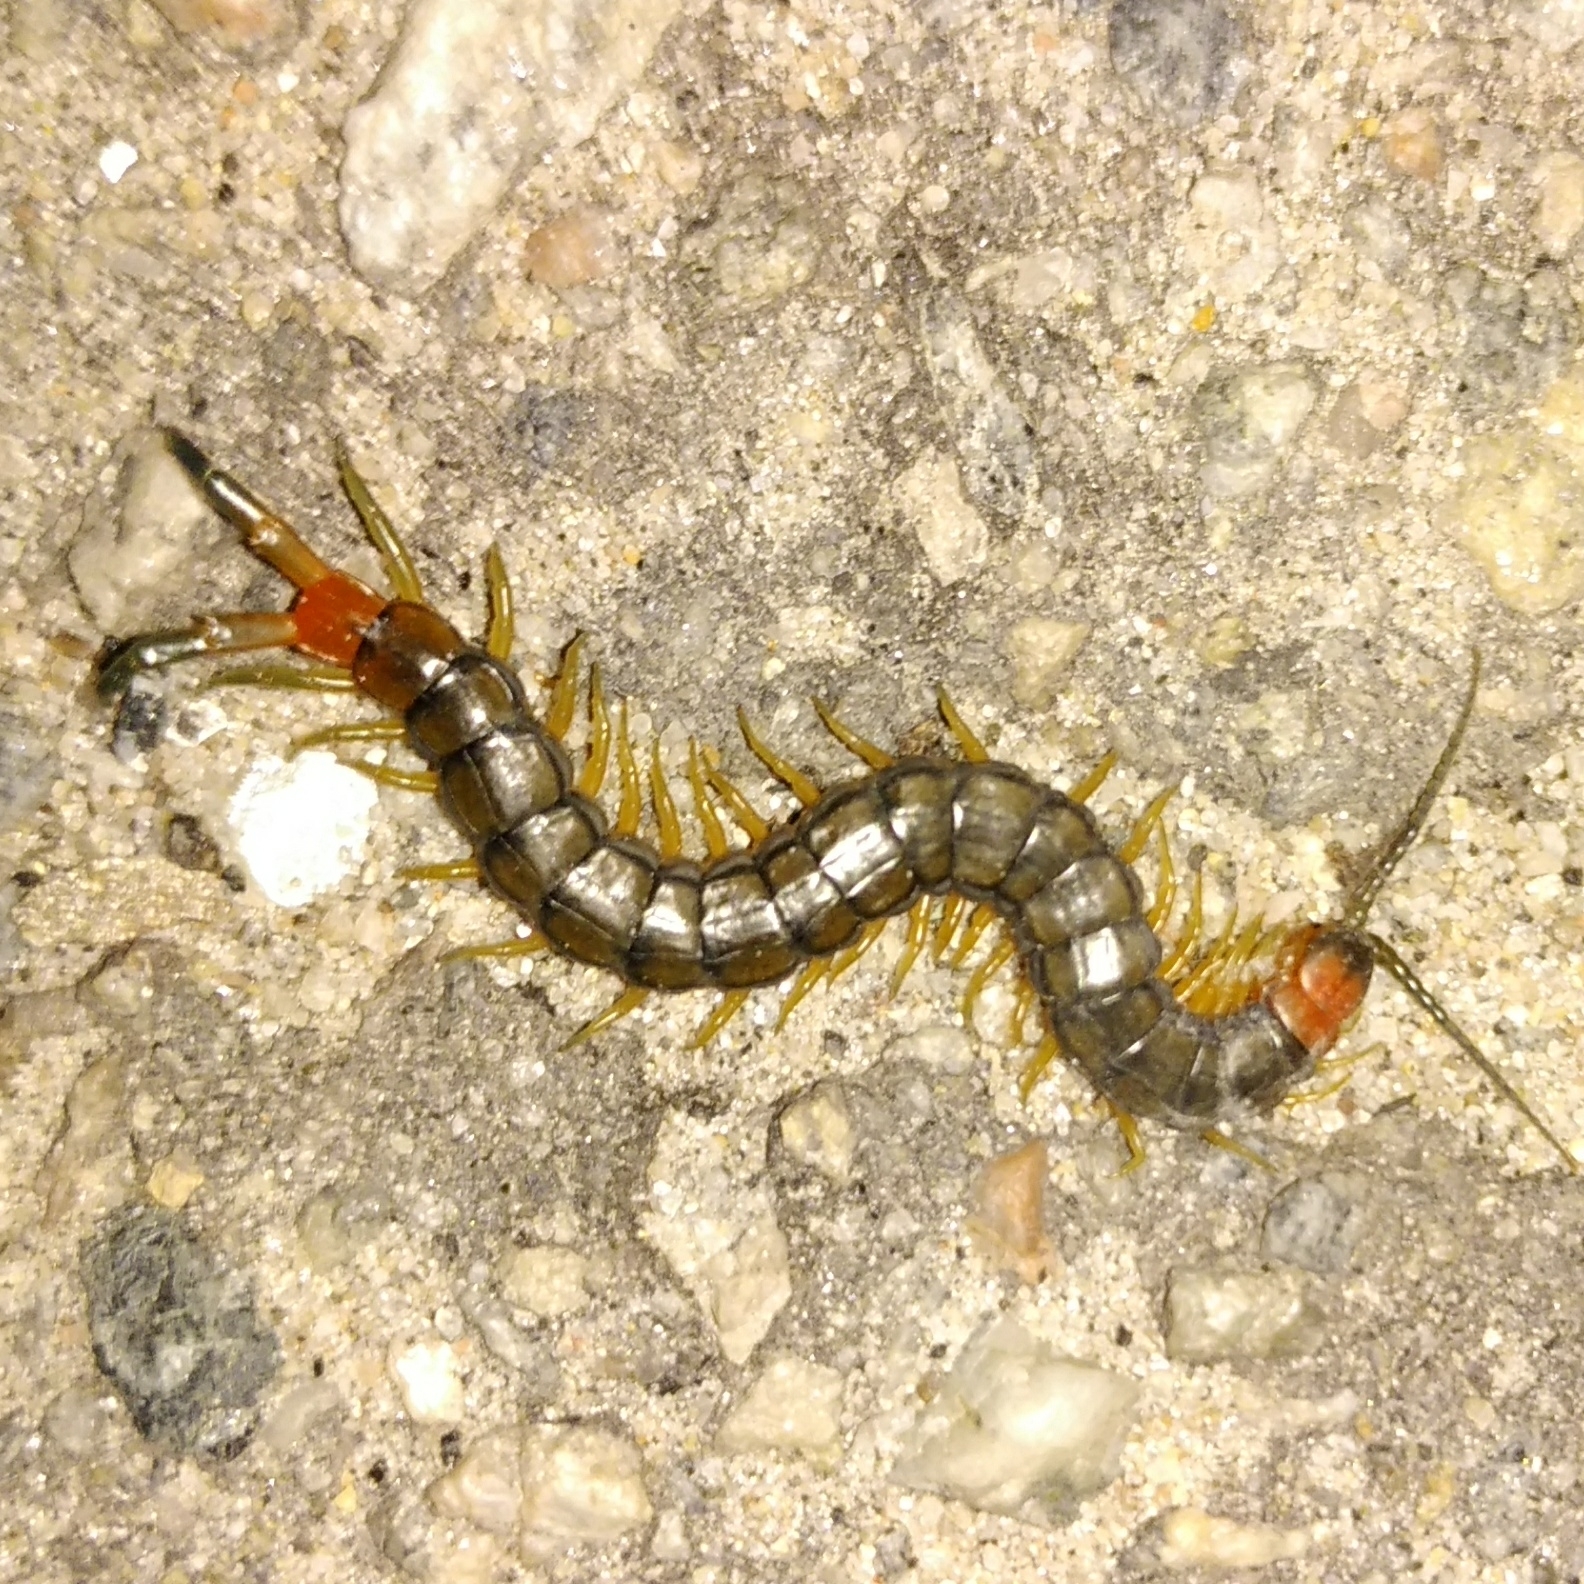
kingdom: Animalia
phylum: Arthropoda
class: Chilopoda
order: Scolopendromorpha
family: Scolopendridae
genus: Scolopendra
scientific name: Scolopendra cingulata
